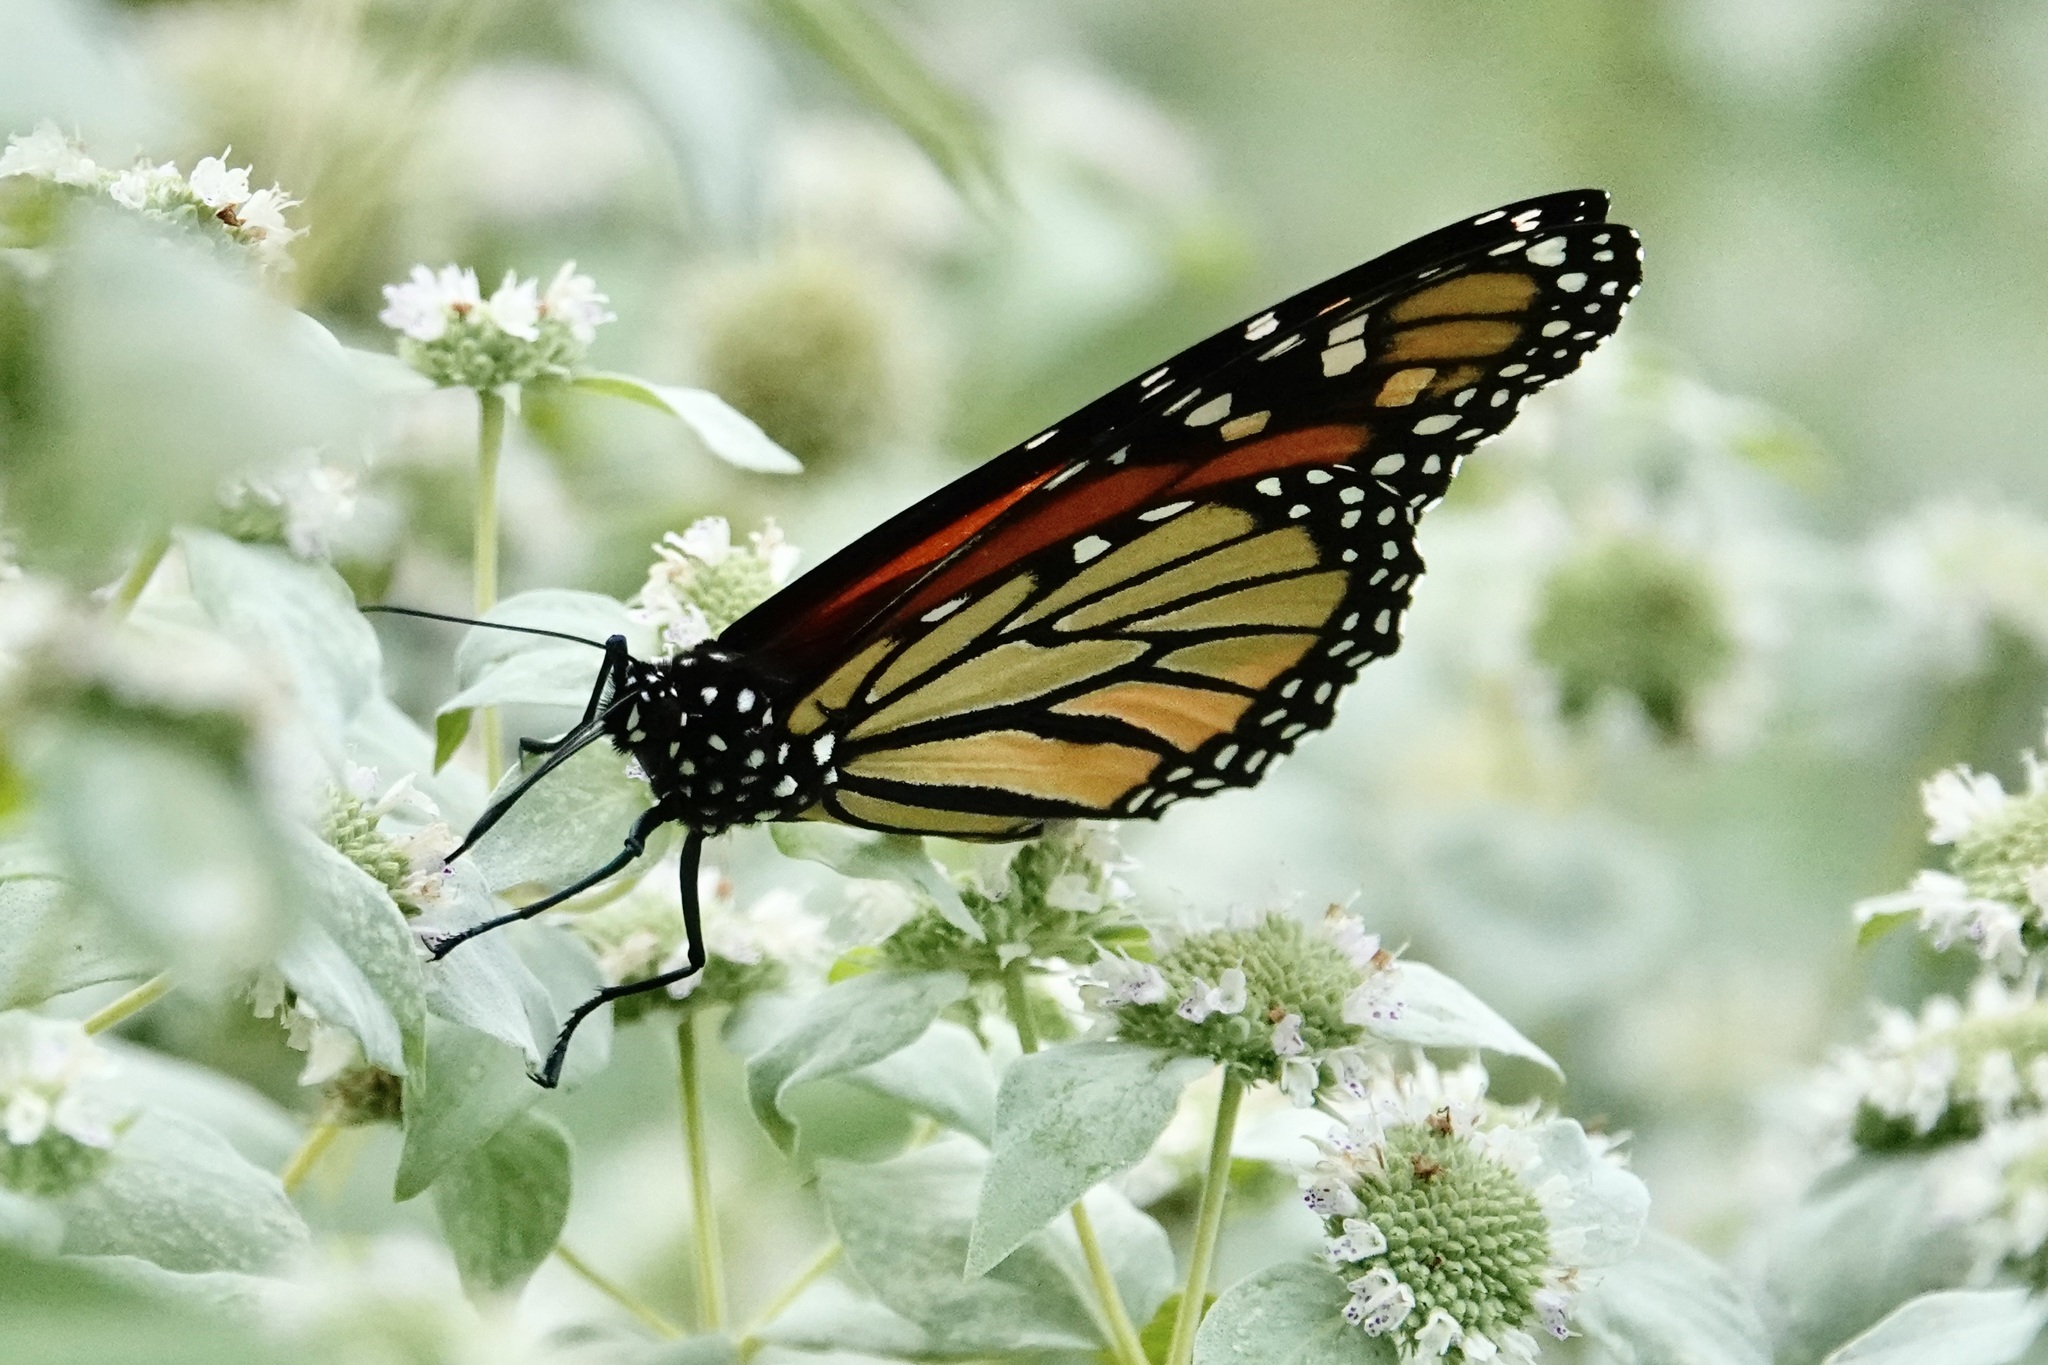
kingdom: Animalia
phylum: Arthropoda
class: Insecta
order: Lepidoptera
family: Nymphalidae
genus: Danaus
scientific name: Danaus plexippus
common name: Monarch
